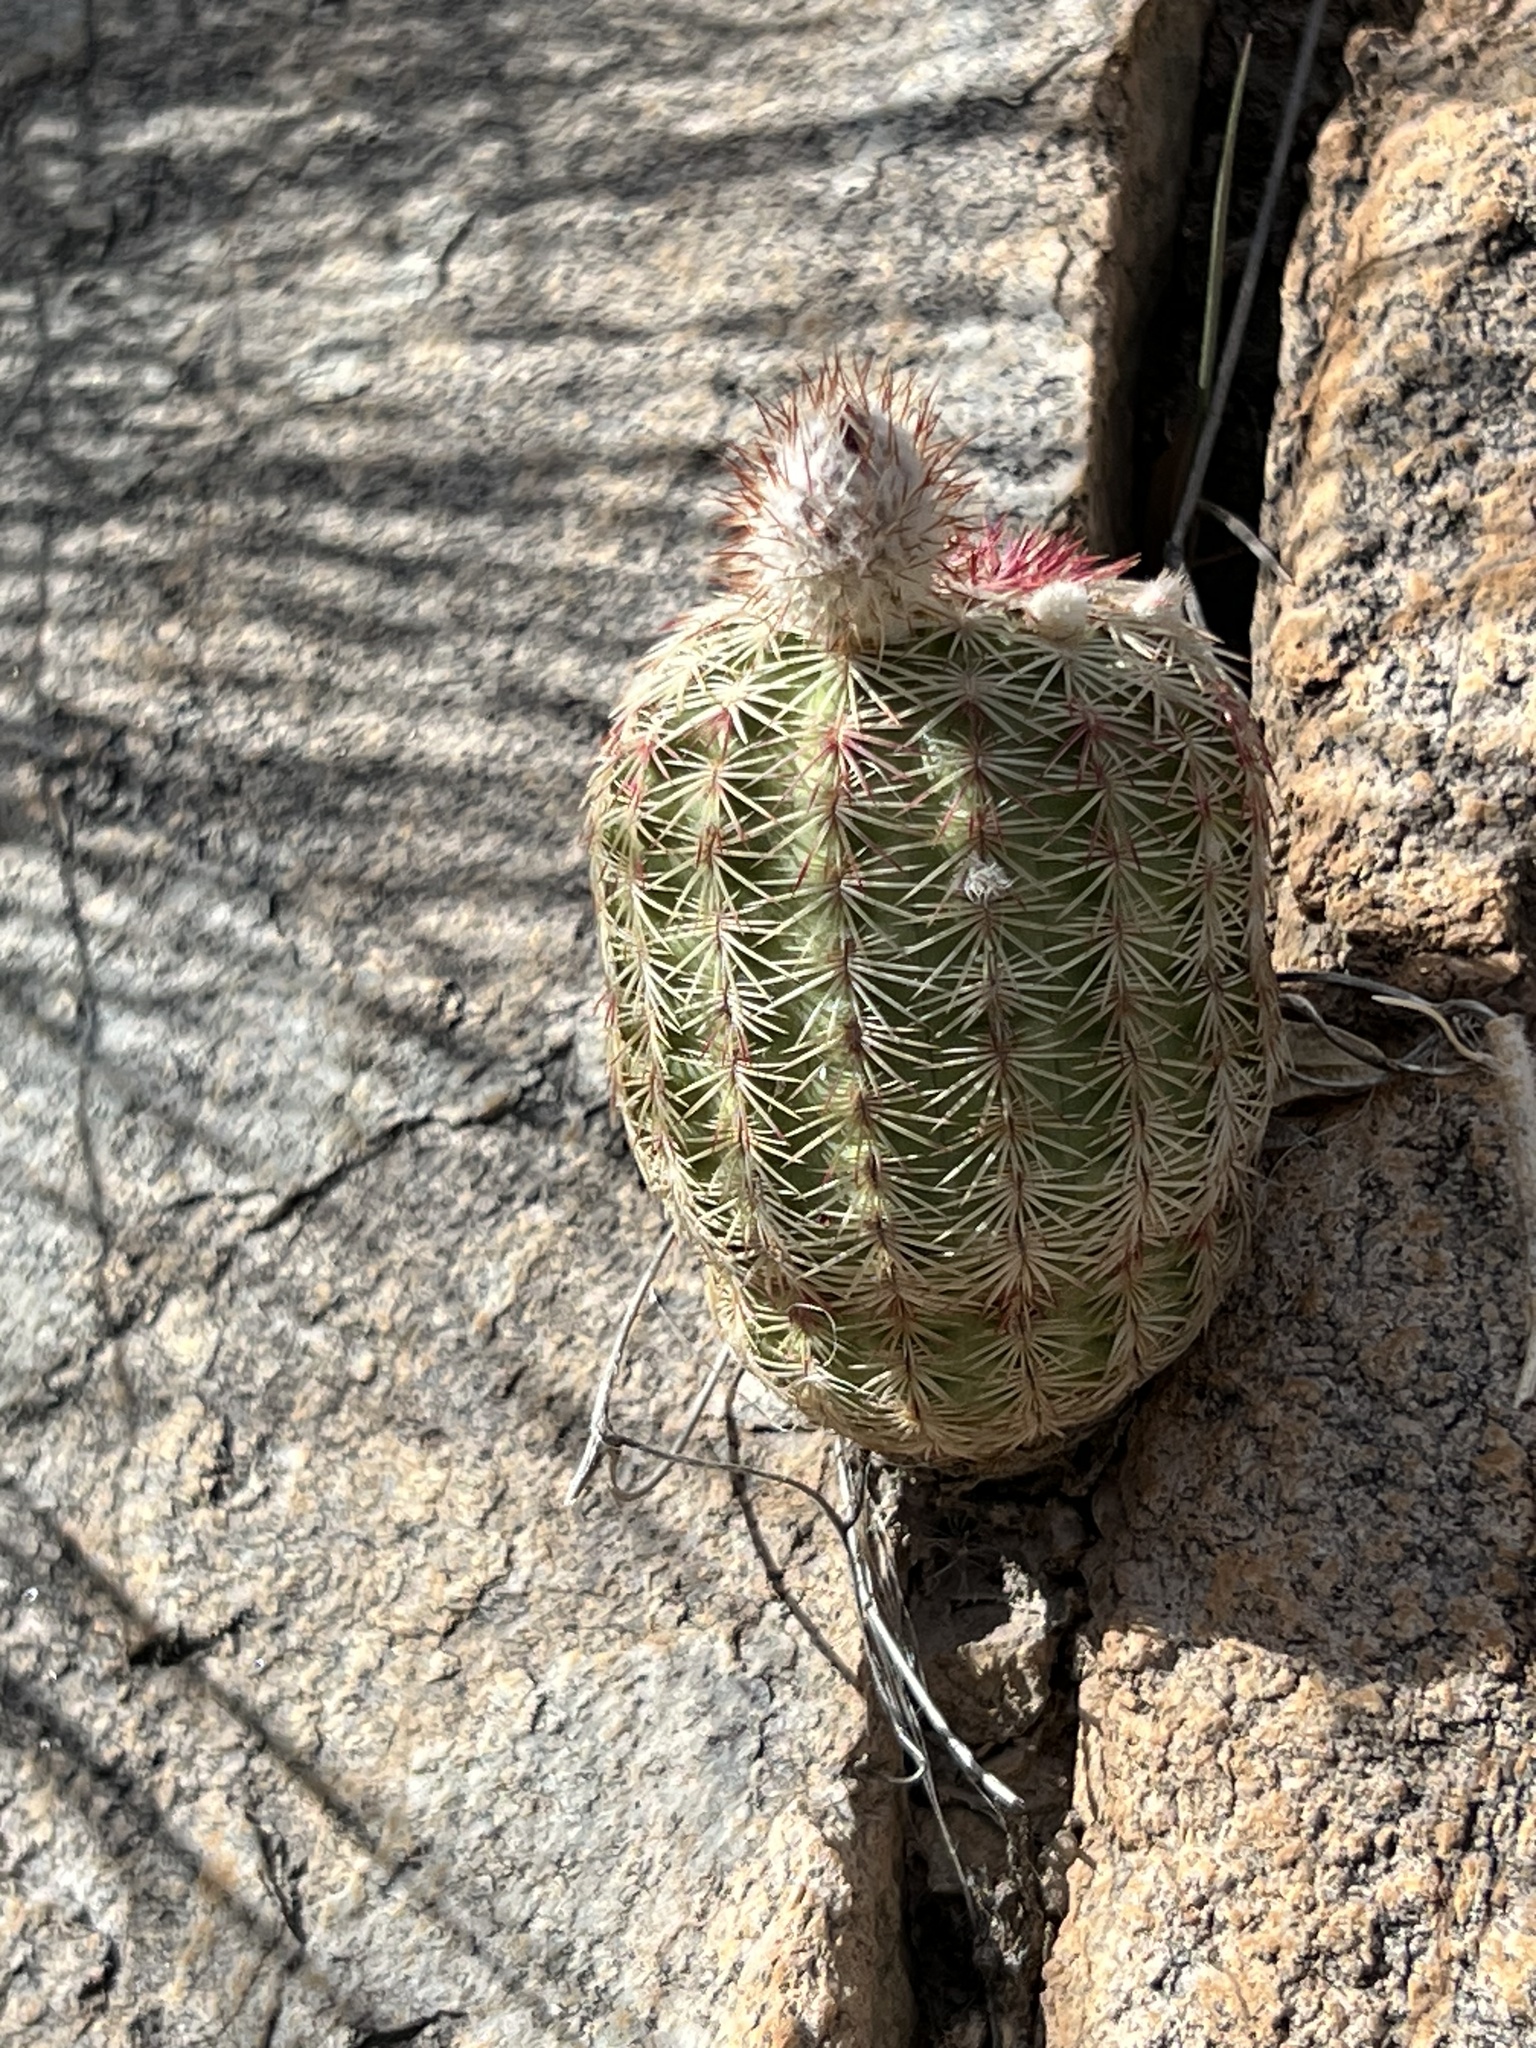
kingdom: Plantae
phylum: Tracheophyta
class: Magnoliopsida
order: Caryophyllales
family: Cactaceae
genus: Echinocereus
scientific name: Echinocereus rigidissimus
